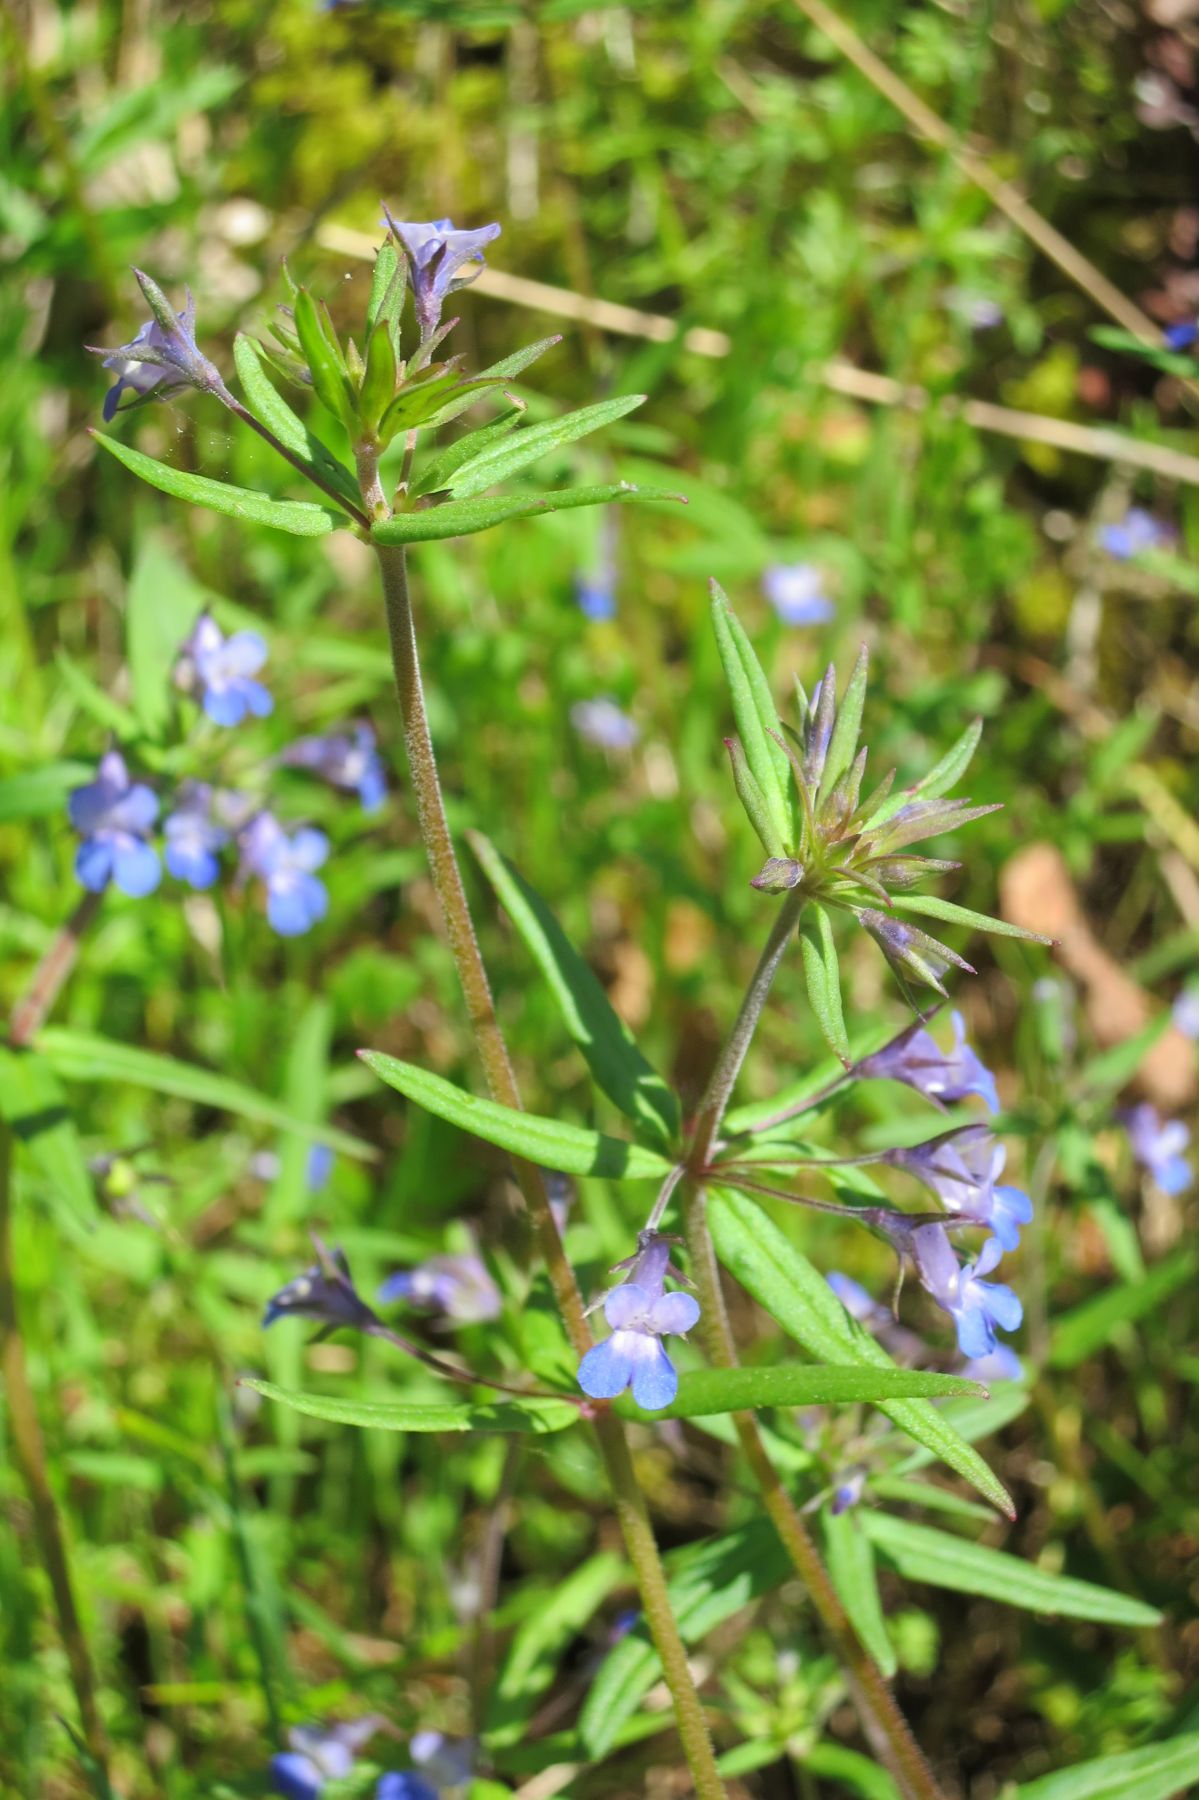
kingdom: Plantae
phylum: Tracheophyta
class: Magnoliopsida
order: Lamiales
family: Plantaginaceae
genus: Collinsia
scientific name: Collinsia parviflora
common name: Blue-lips
